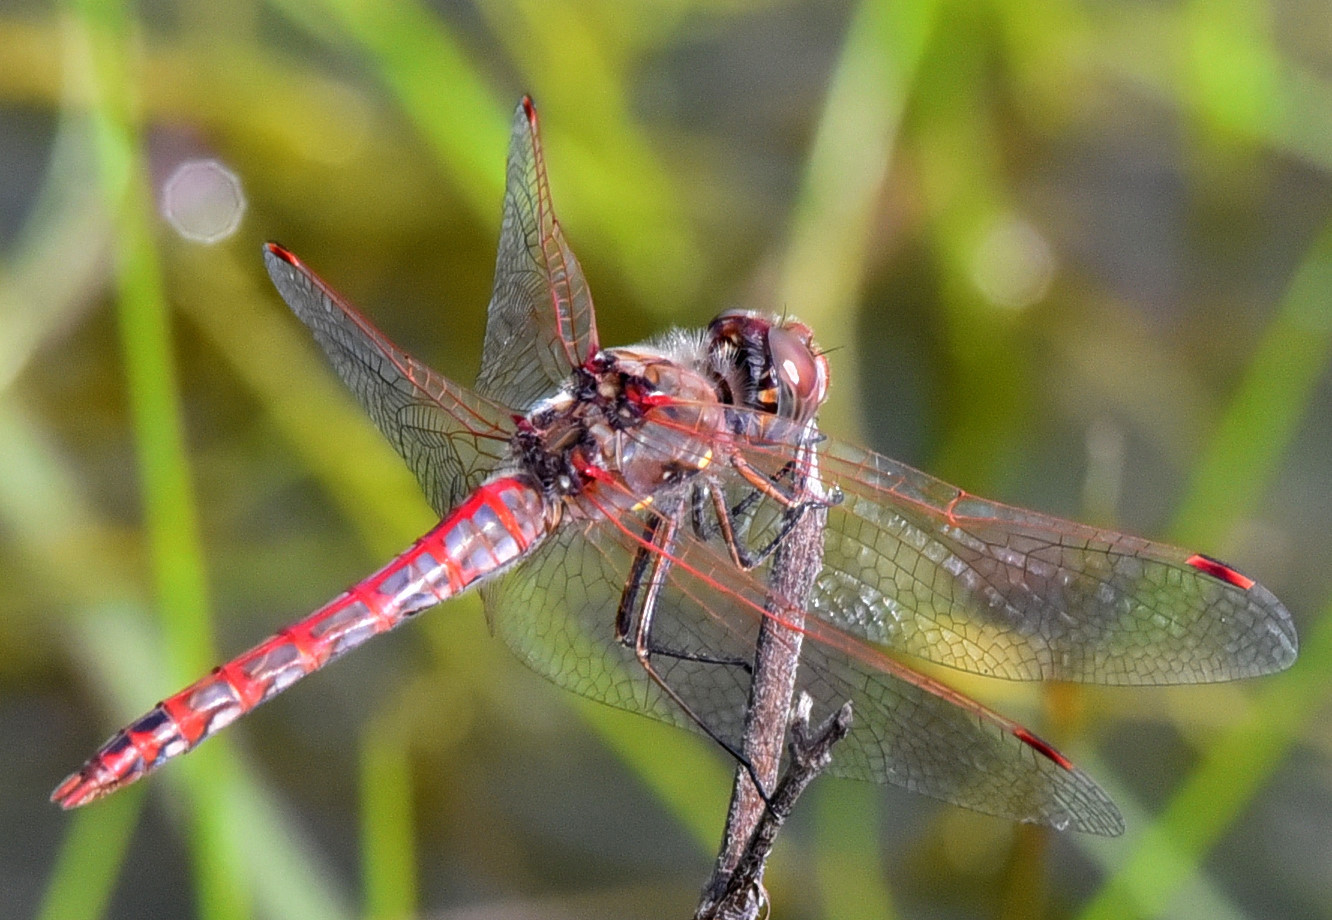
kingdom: Animalia
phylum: Arthropoda
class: Insecta
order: Odonata
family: Libellulidae
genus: Sympetrum
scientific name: Sympetrum corruptum
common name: Variegated meadowhawk
